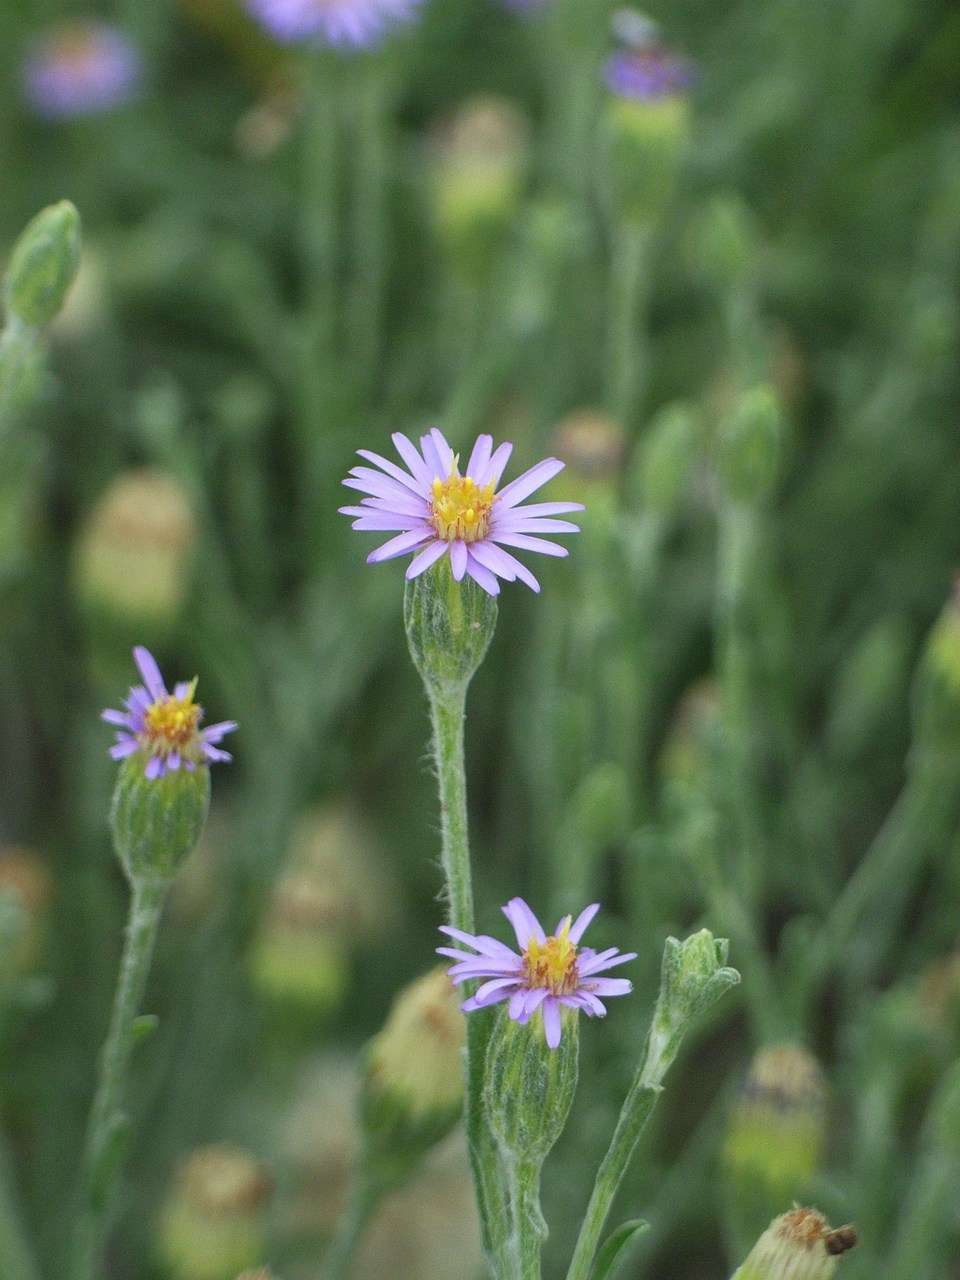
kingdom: Plantae
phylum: Tracheophyta
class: Magnoliopsida
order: Asterales
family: Asteraceae
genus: Vittadinia
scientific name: Vittadinia gracilis
